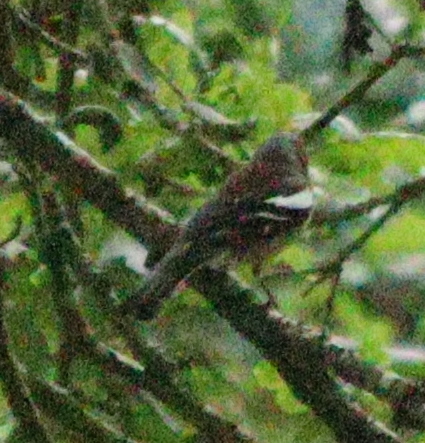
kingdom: Animalia
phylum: Chordata
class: Aves
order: Passeriformes
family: Fringillidae
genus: Fringilla
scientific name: Fringilla coelebs
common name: Common chaffinch
